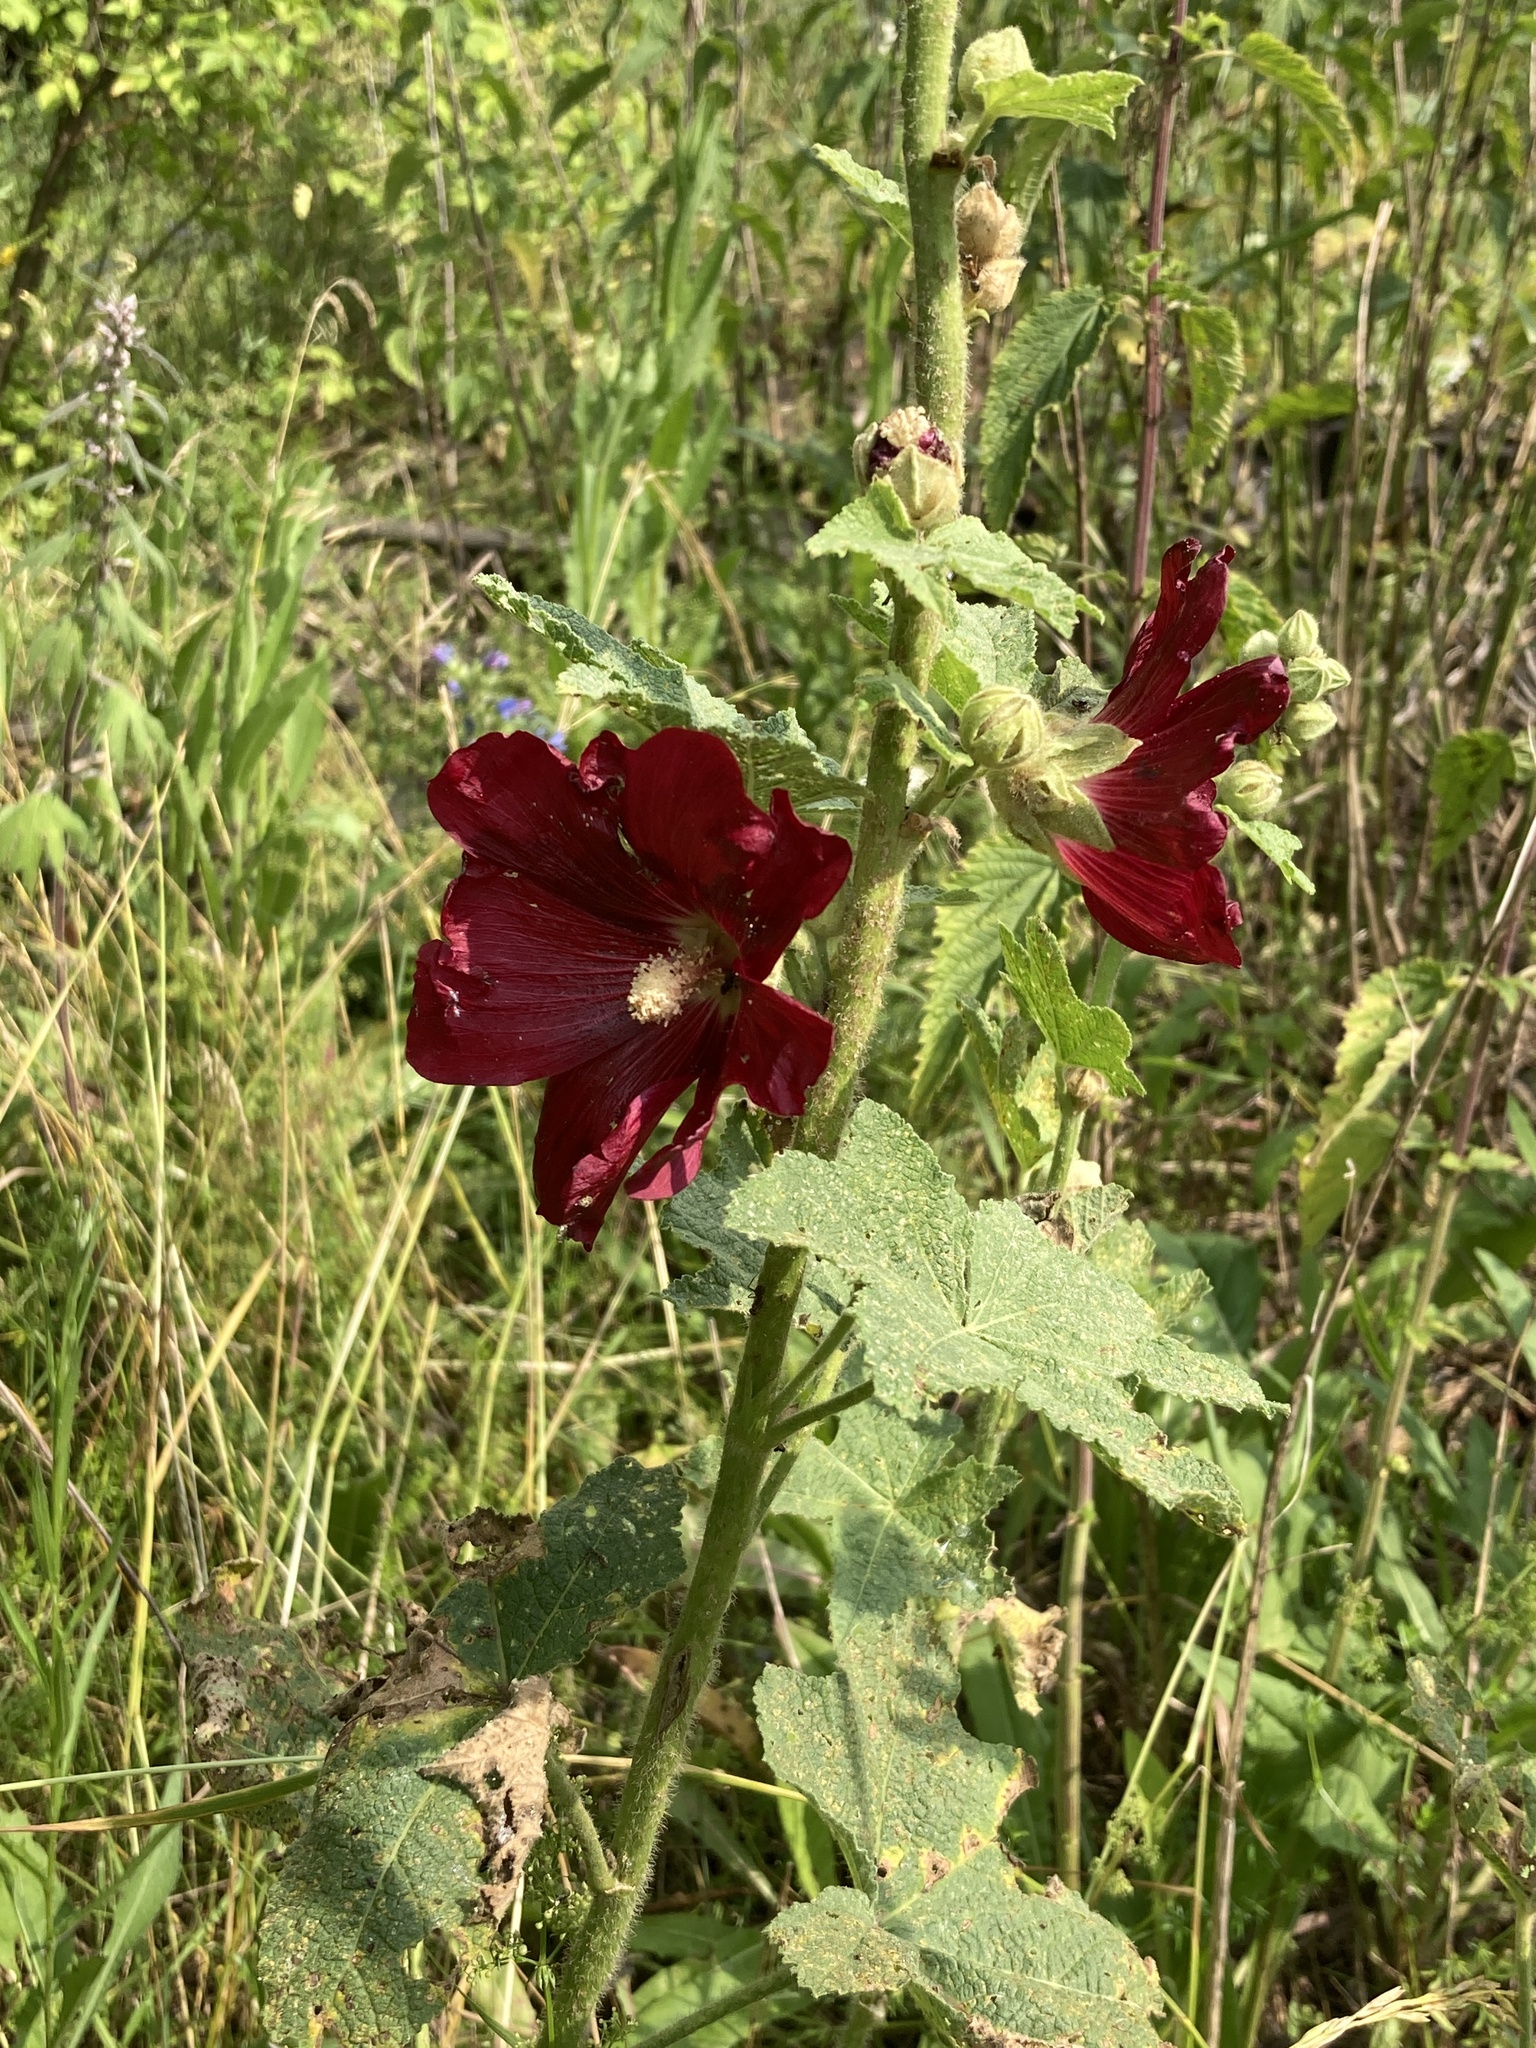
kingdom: Plantae
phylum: Tracheophyta
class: Magnoliopsida
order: Malvales
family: Malvaceae
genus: Alcea
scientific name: Alcea rosea
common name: Hollyhock
